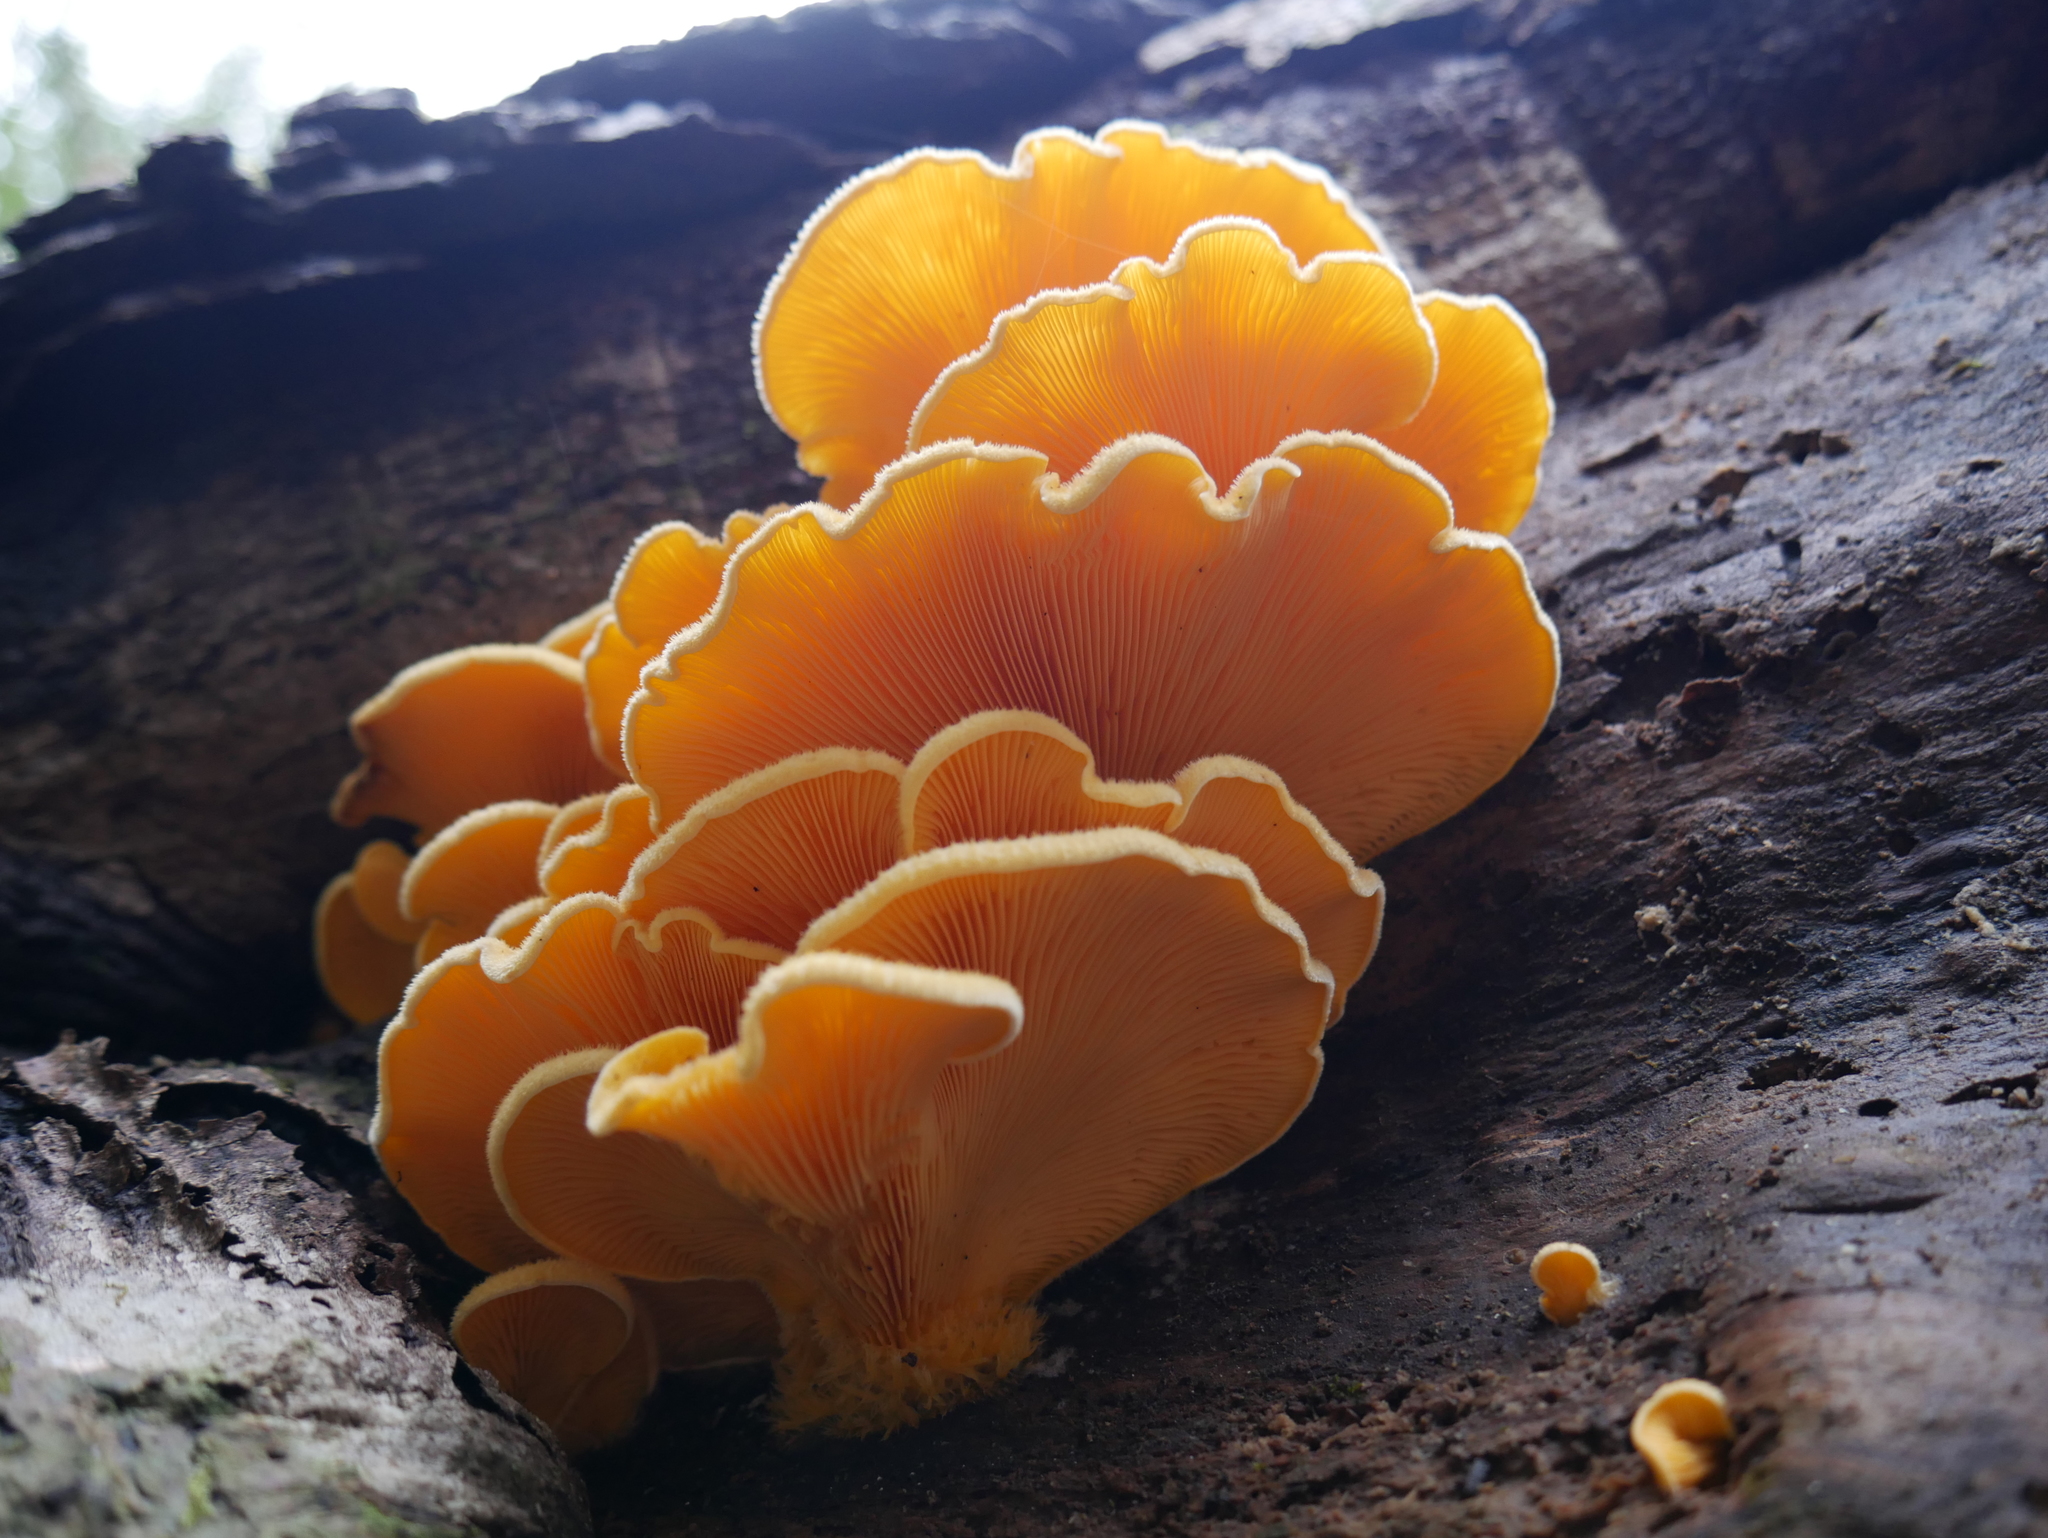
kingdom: Fungi
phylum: Basidiomycota
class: Agaricomycetes
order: Agaricales
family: Phyllotopsidaceae
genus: Phyllotopsis
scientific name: Phyllotopsis nidulans
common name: Orange mock oyster
